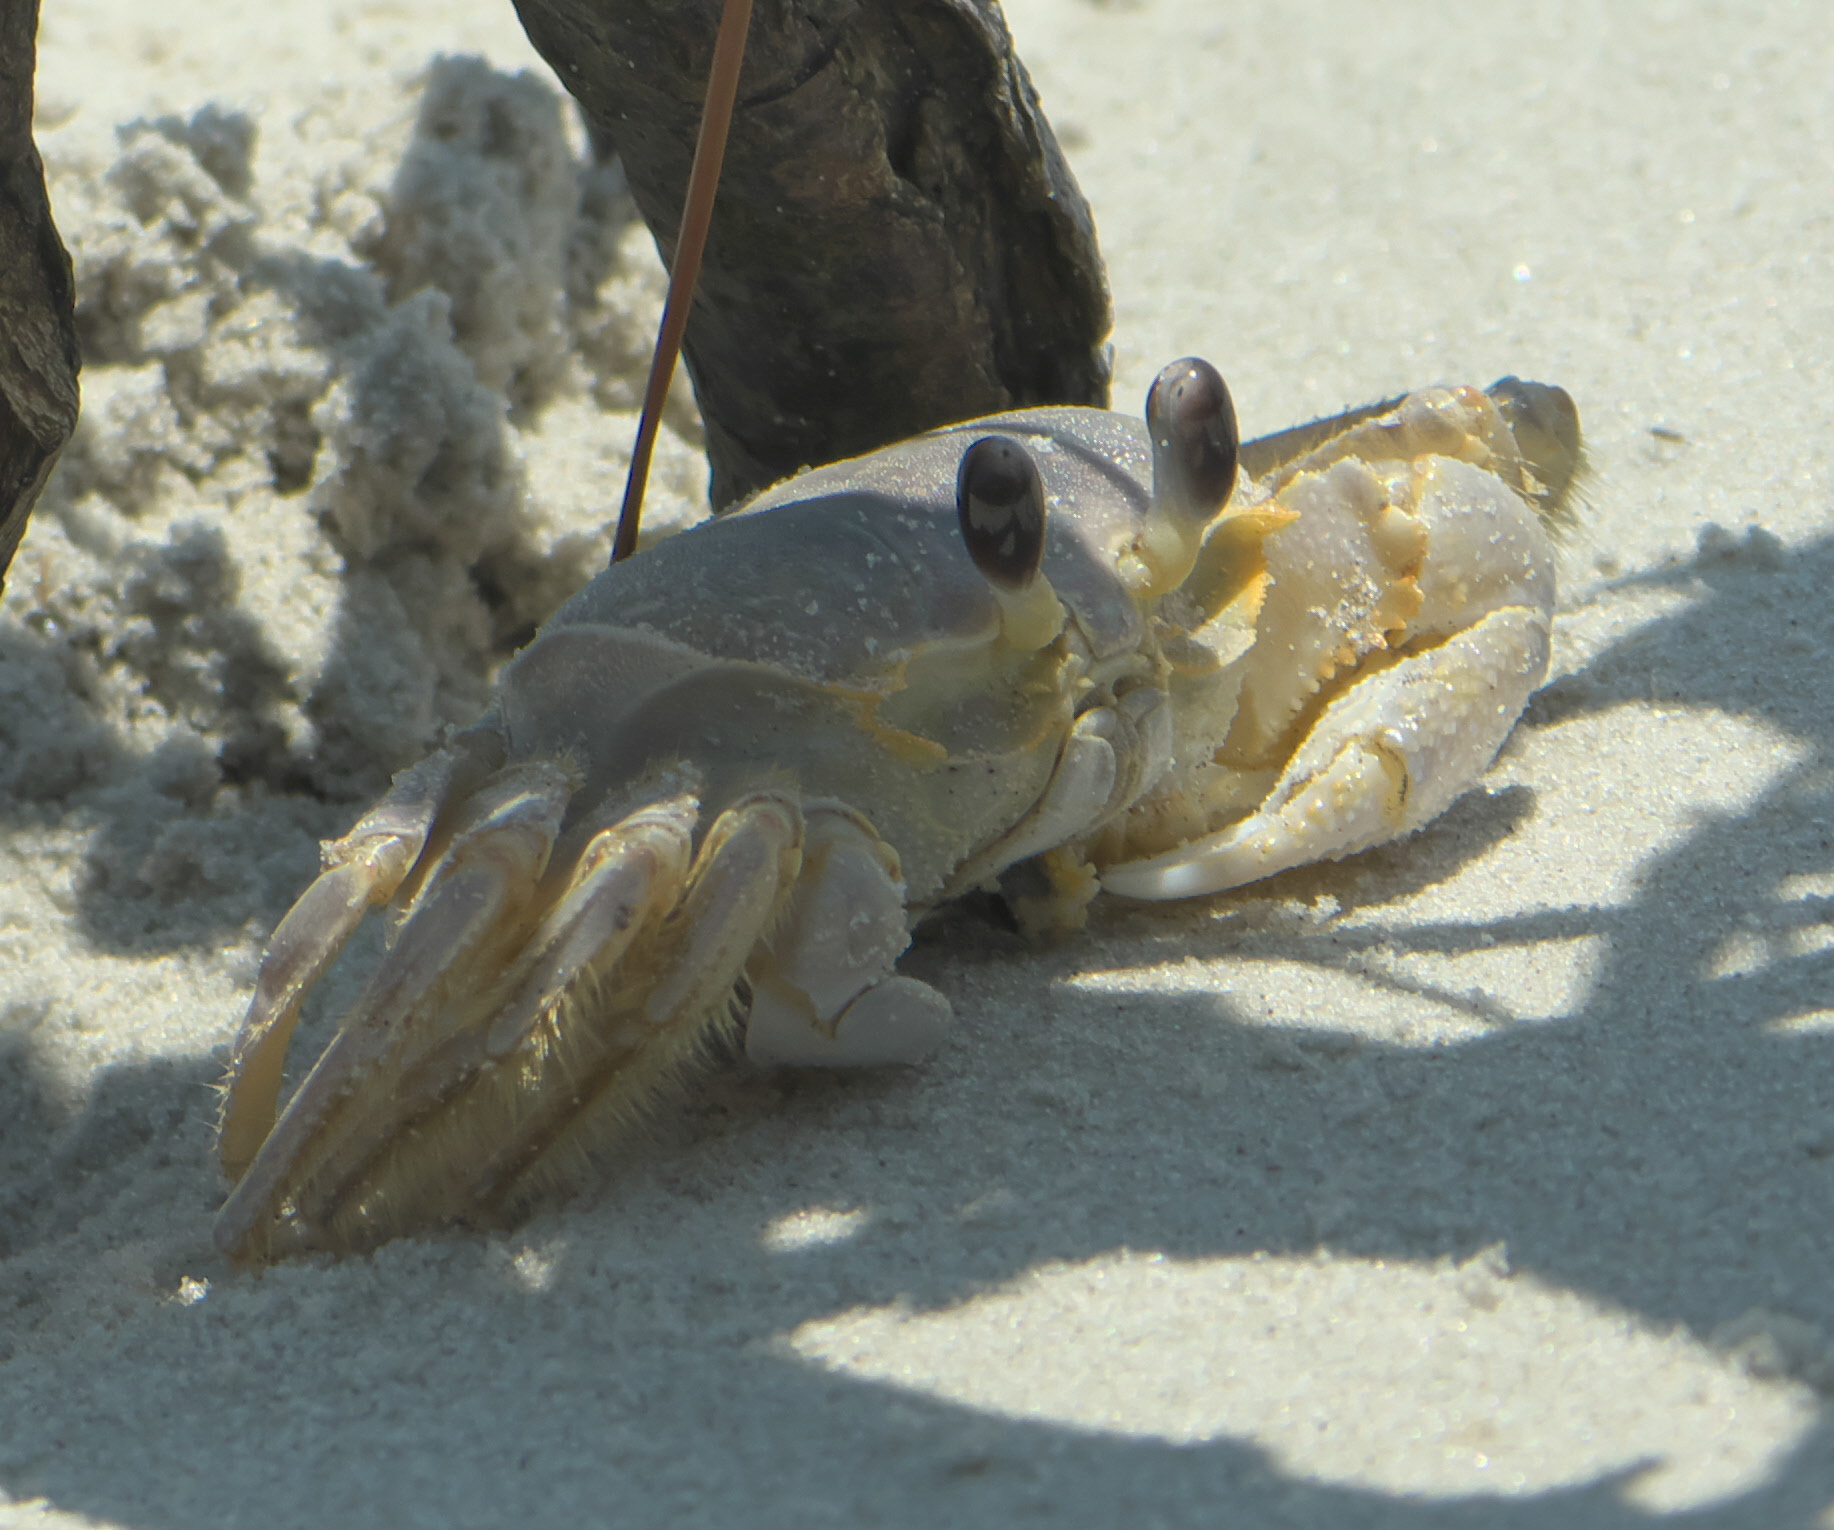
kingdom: Animalia
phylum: Arthropoda
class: Malacostraca
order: Decapoda
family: Ocypodidae
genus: Ocypode
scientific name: Ocypode quadrata
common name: Ghost crab
